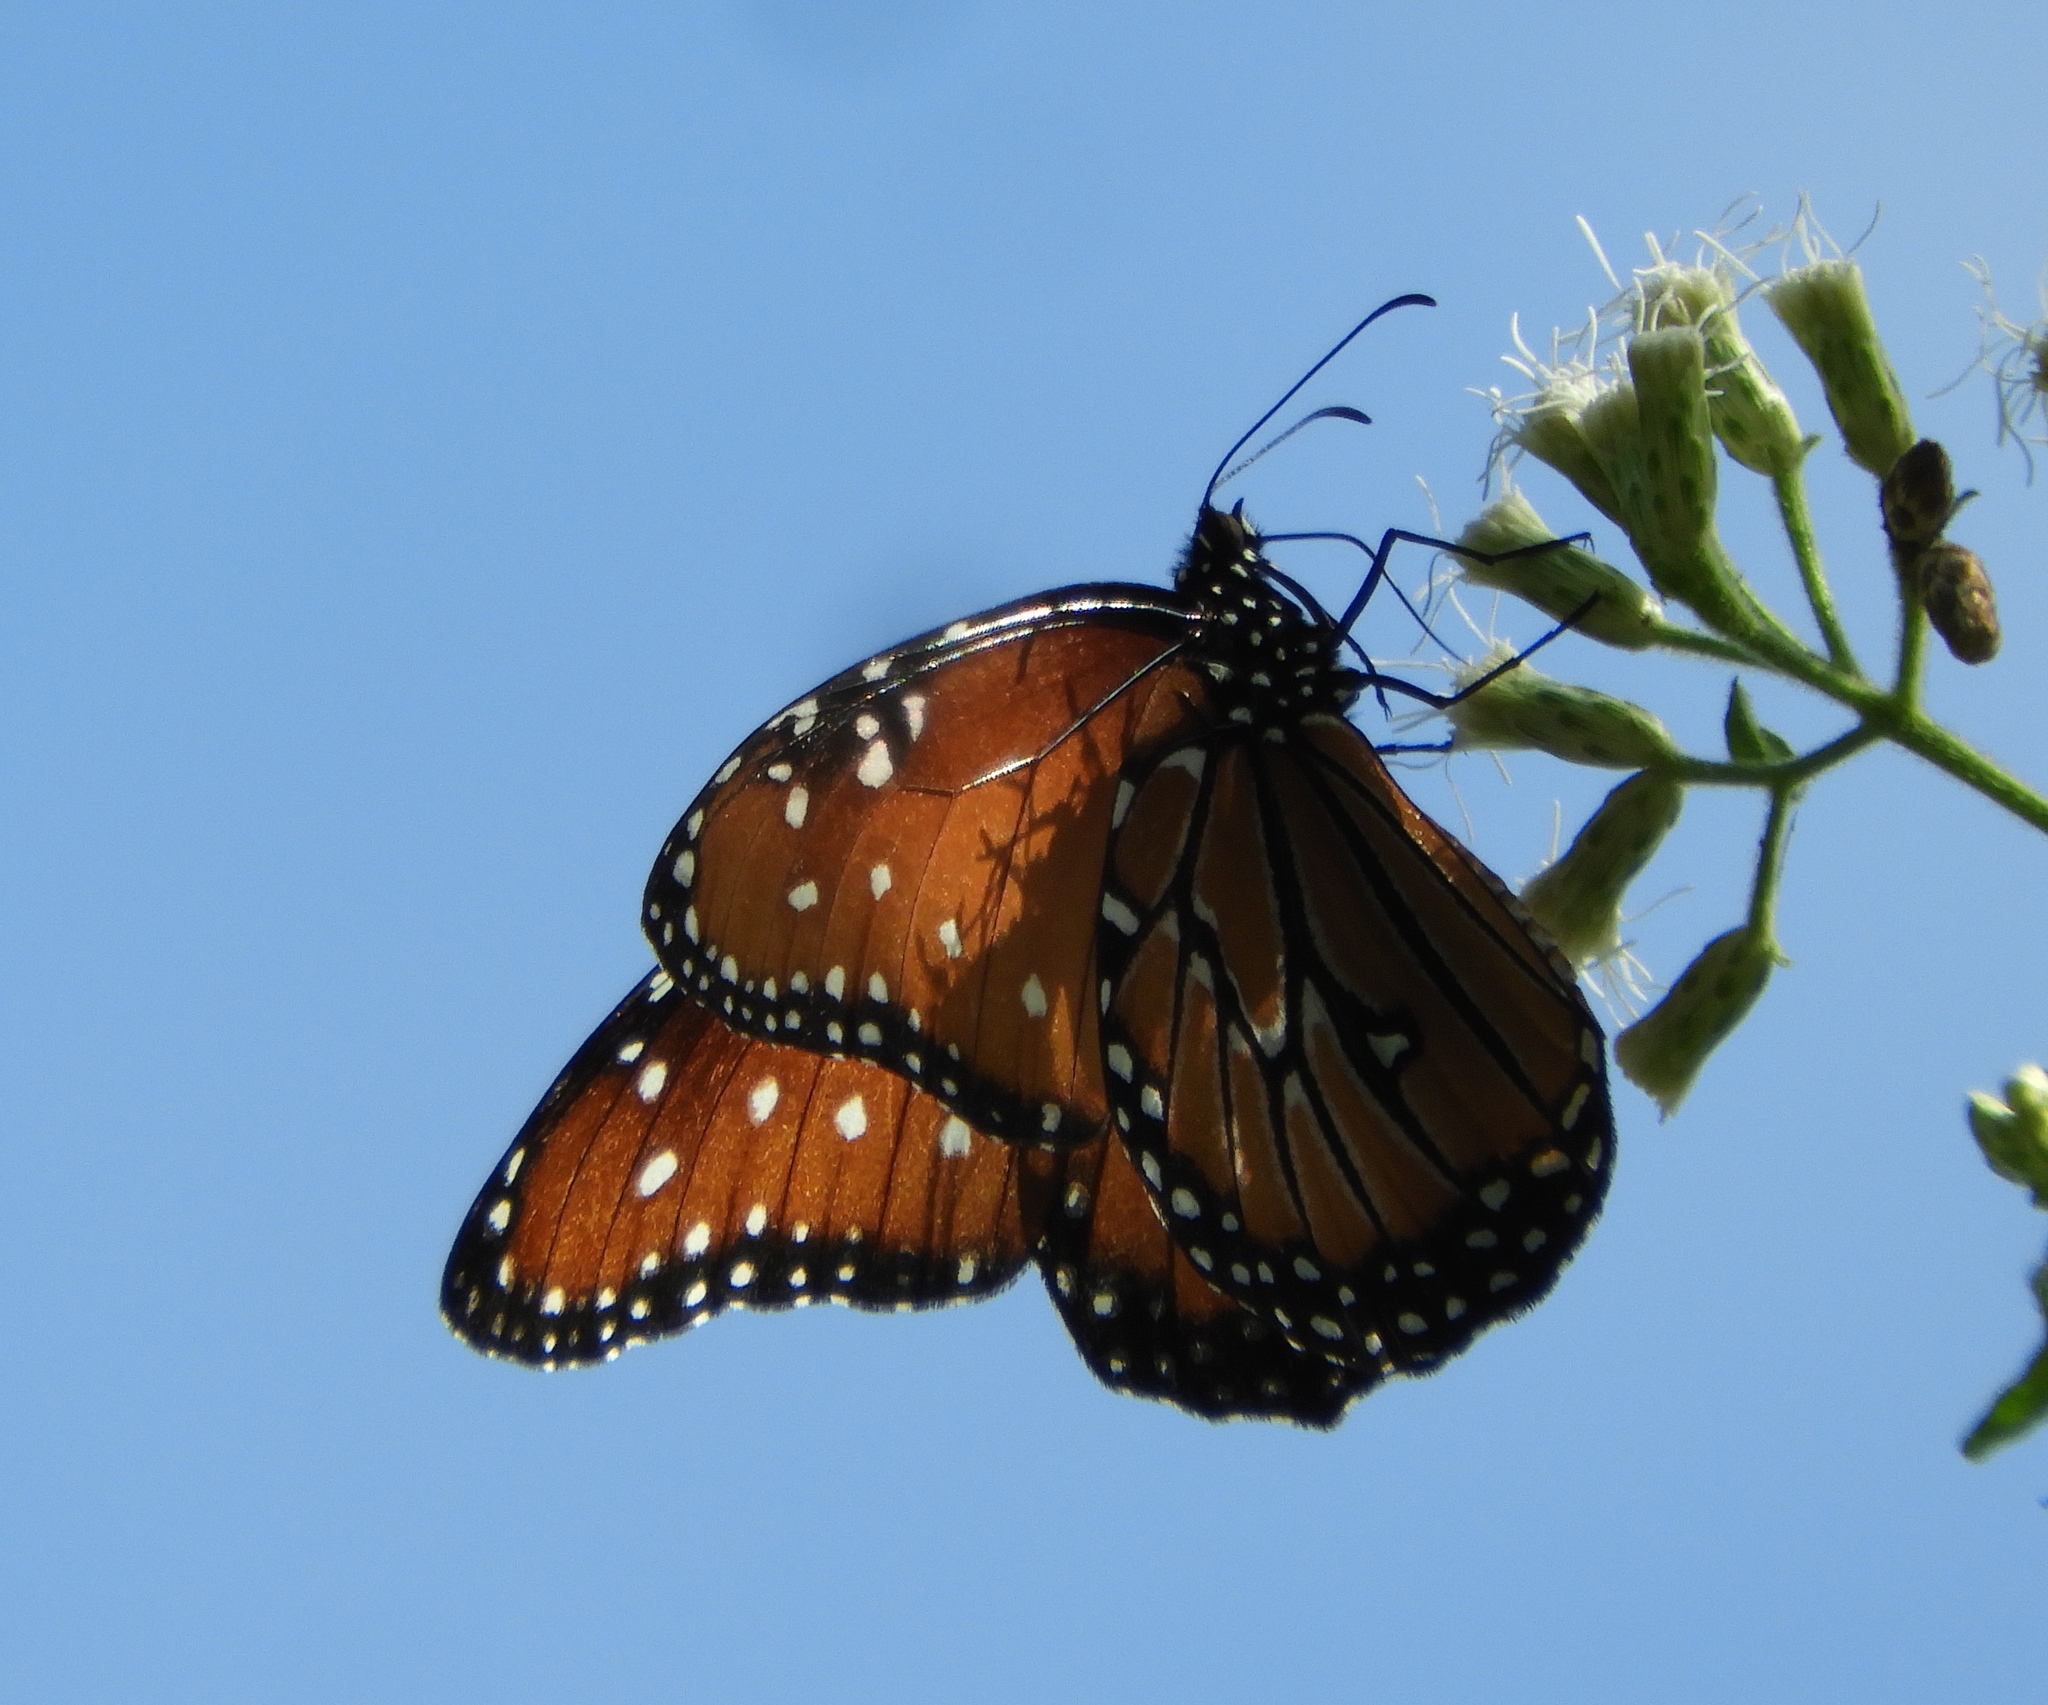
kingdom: Animalia
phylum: Arthropoda
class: Insecta
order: Lepidoptera
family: Nymphalidae
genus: Danaus
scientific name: Danaus gilippus
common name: Queen
